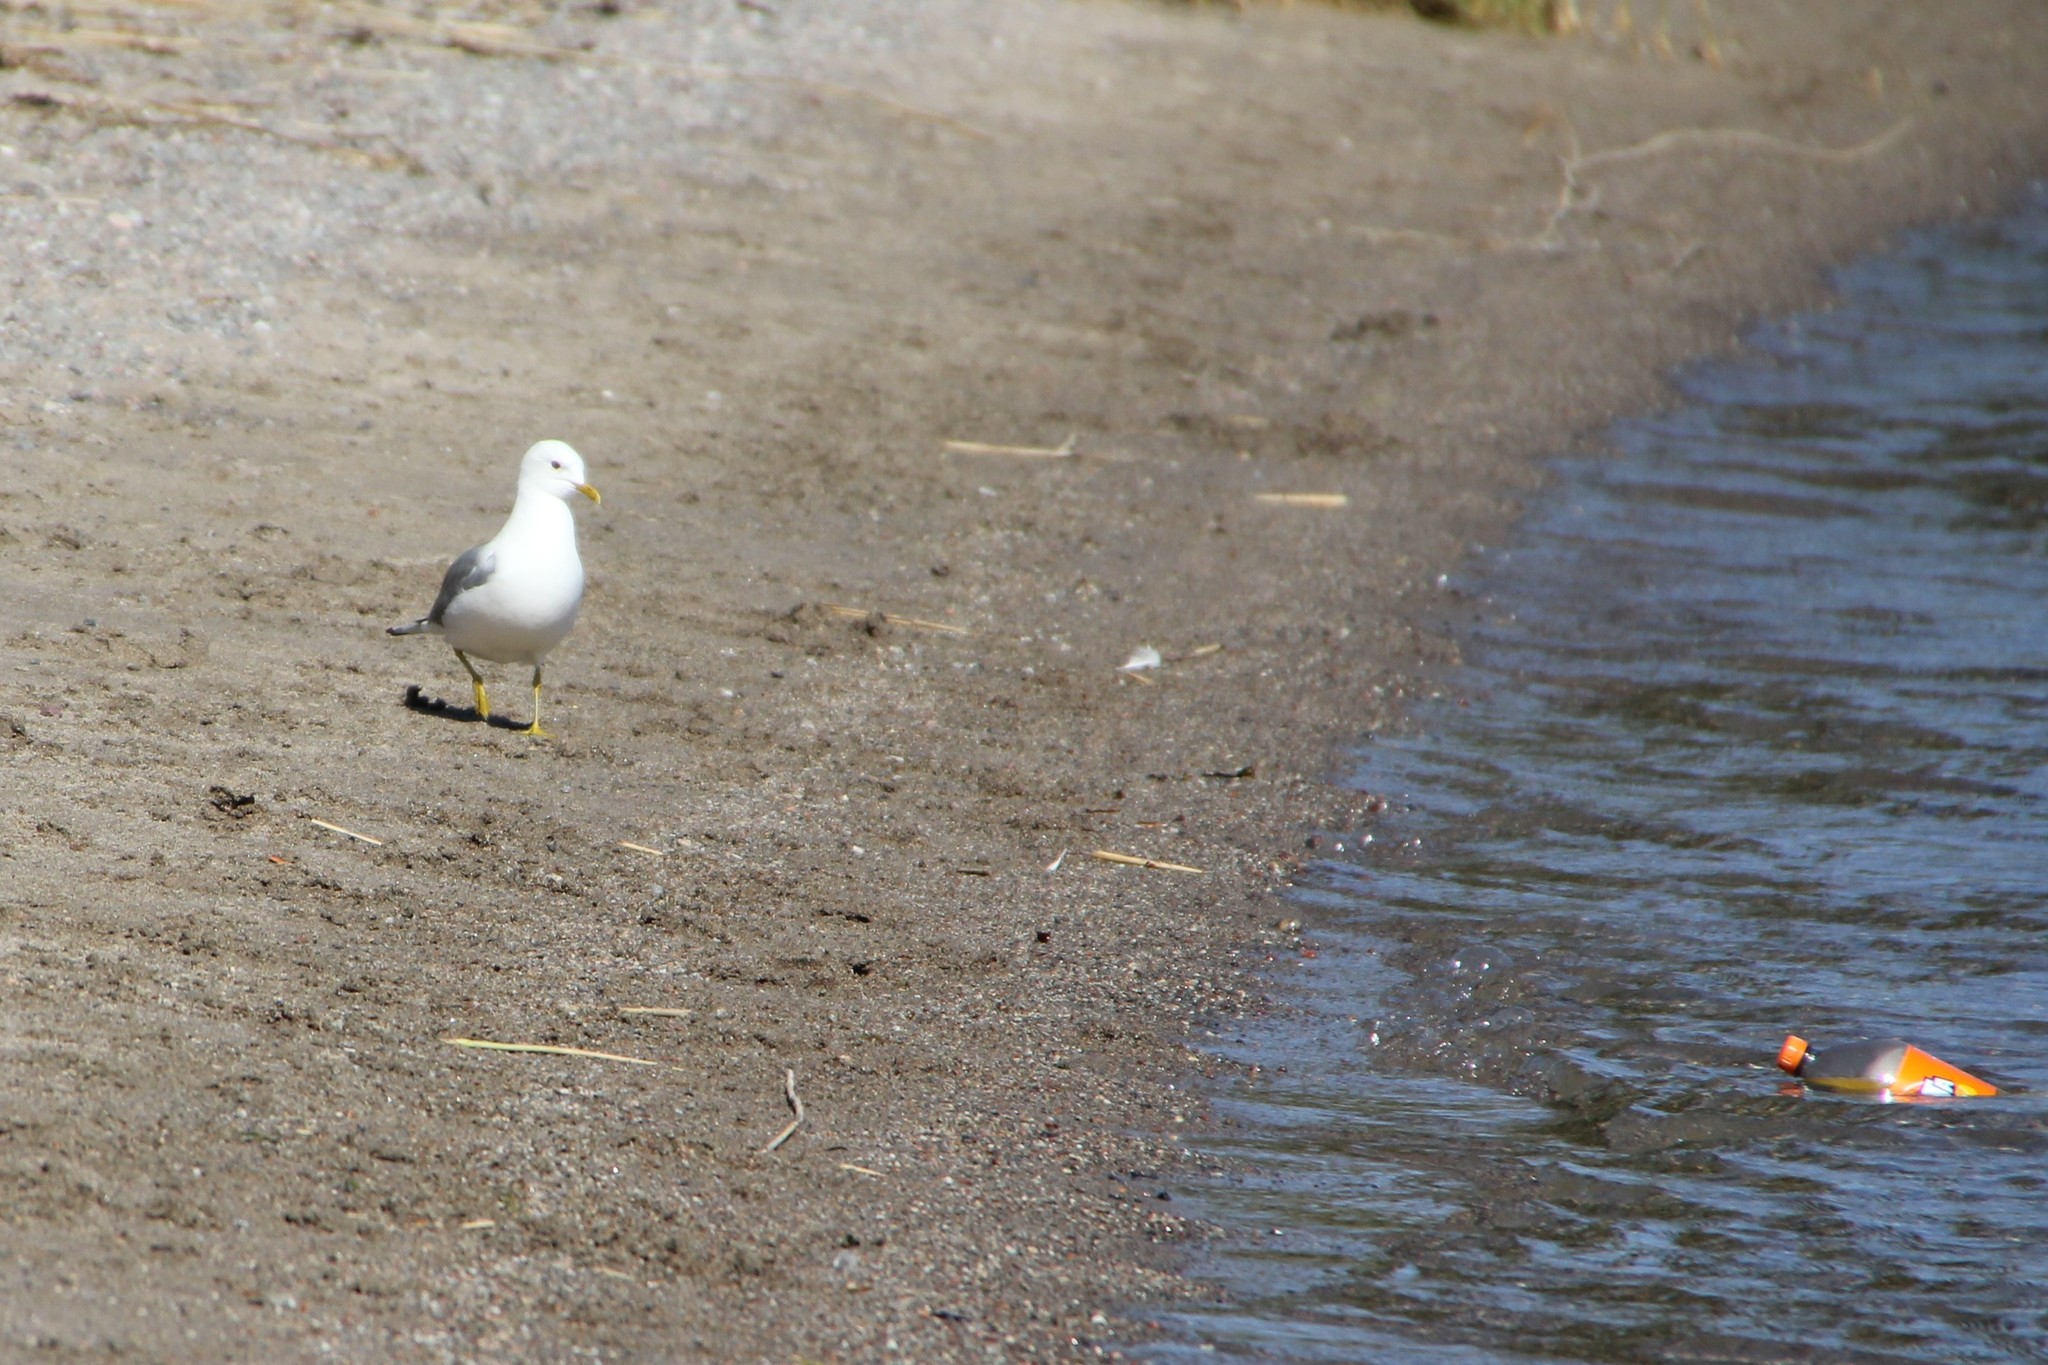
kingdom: Animalia
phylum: Chordata
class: Aves
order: Charadriiformes
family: Laridae
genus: Larus
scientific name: Larus canus
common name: Mew gull
